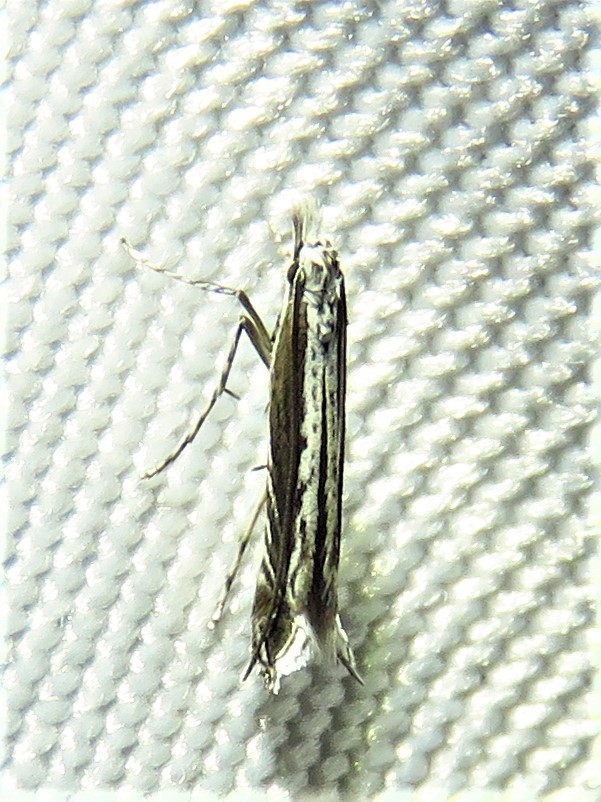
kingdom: Plantae
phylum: Rhodophyta
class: Florideophyceae
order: Gracilariales
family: Gracilariaceae
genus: Gracilaria
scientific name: Gracilaria
